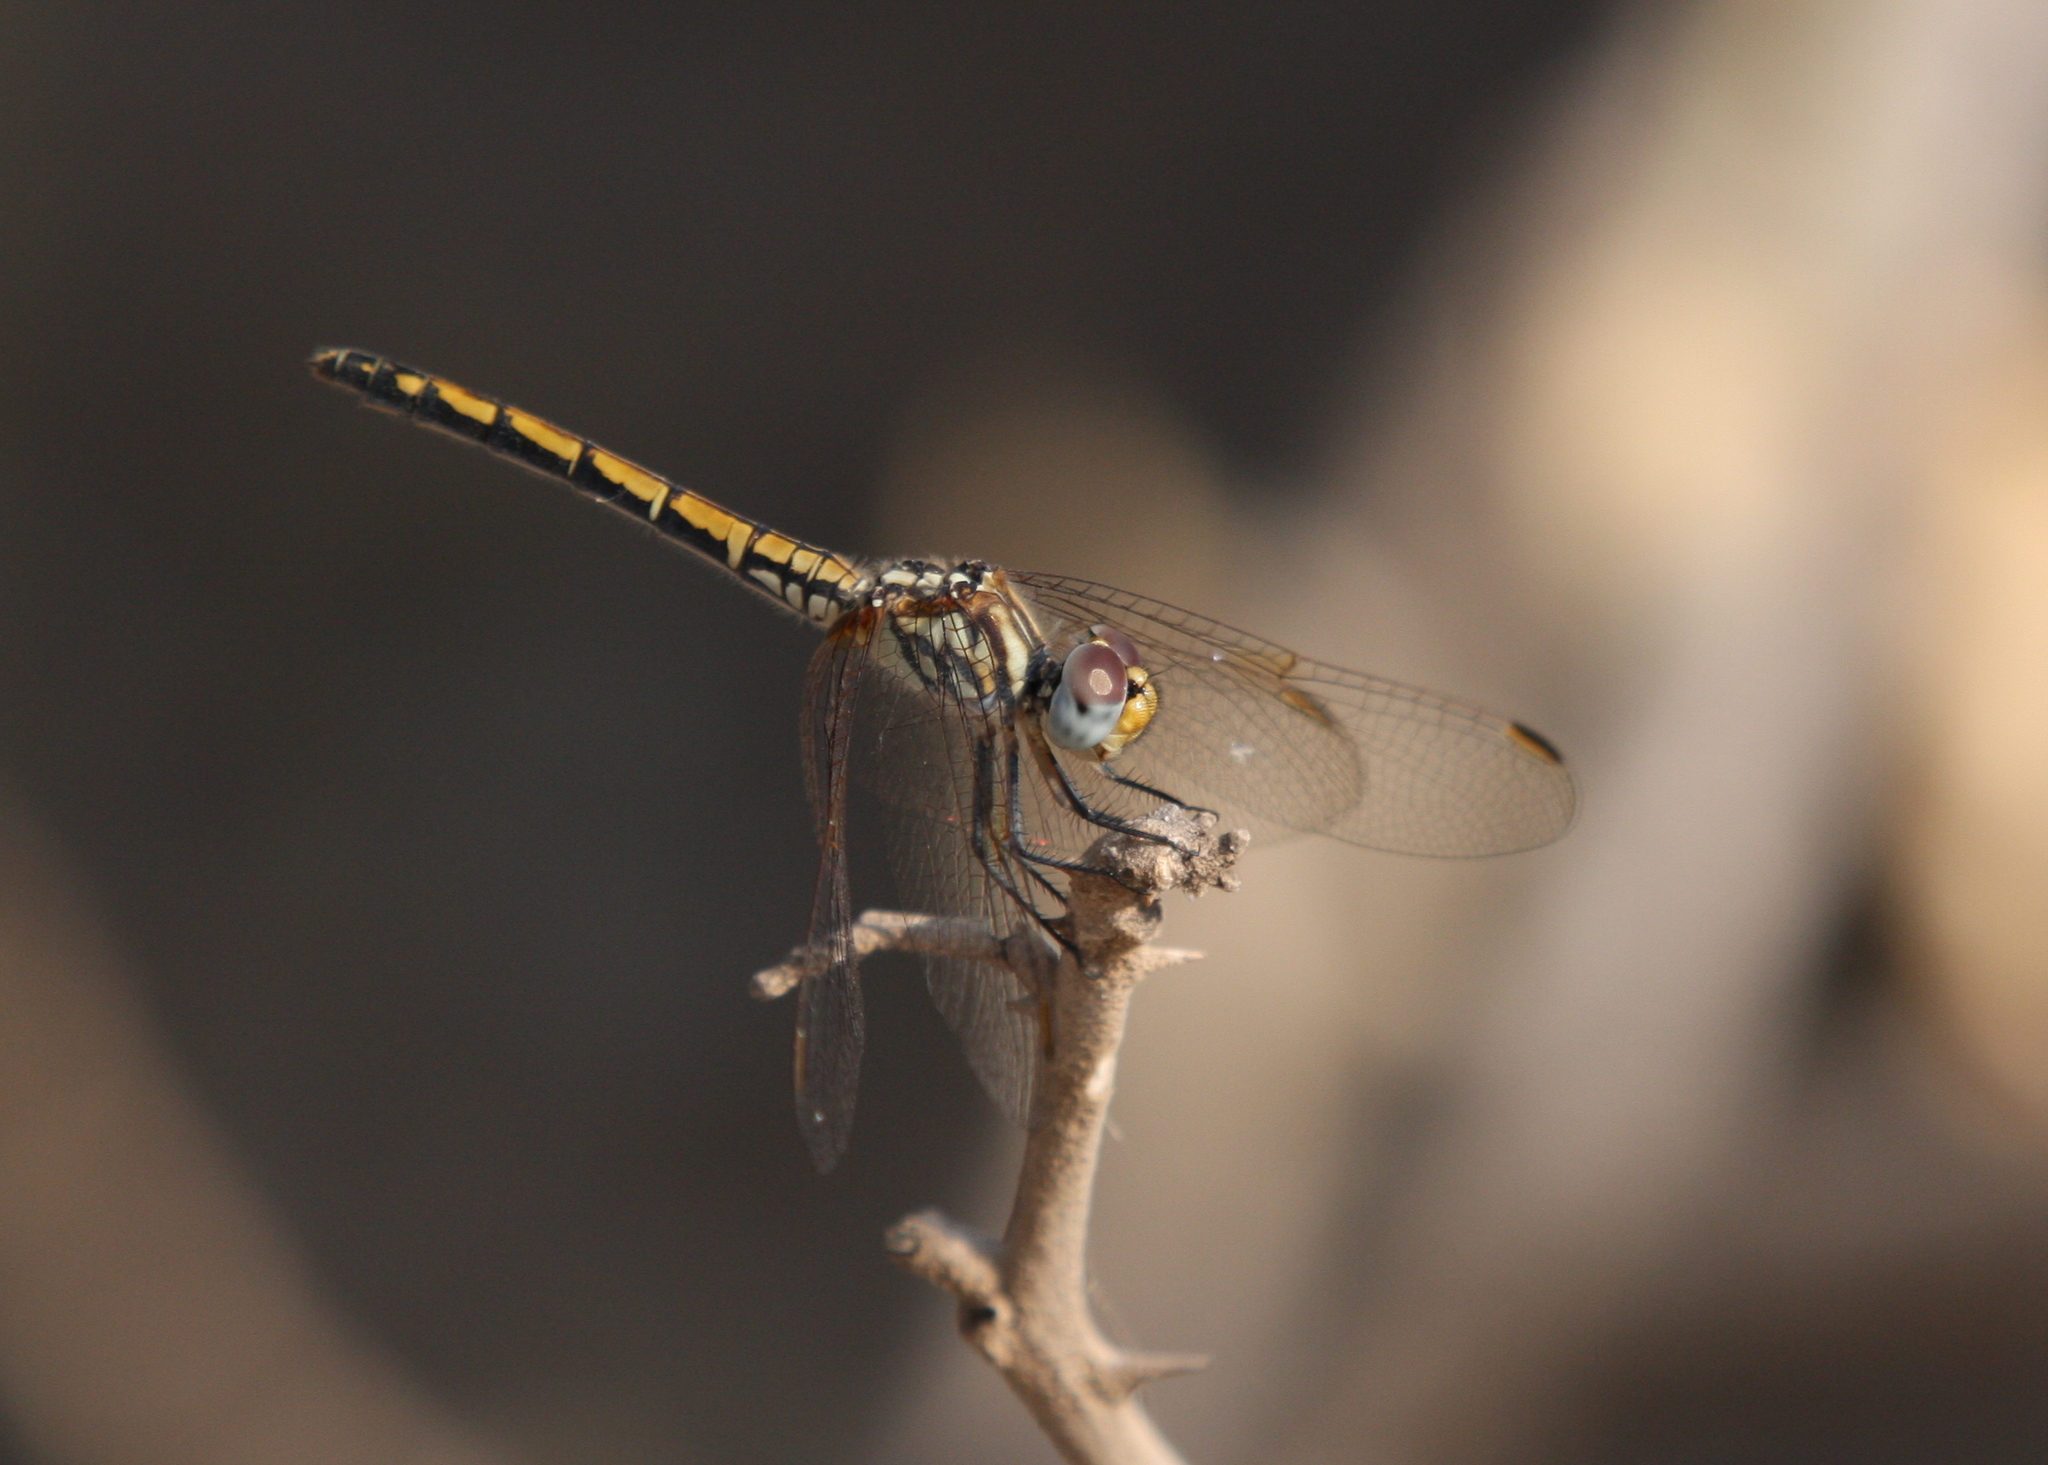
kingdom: Animalia
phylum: Arthropoda
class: Insecta
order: Odonata
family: Libellulidae
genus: Trithemis
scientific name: Trithemis arteriosa
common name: Red-veined dropwing
